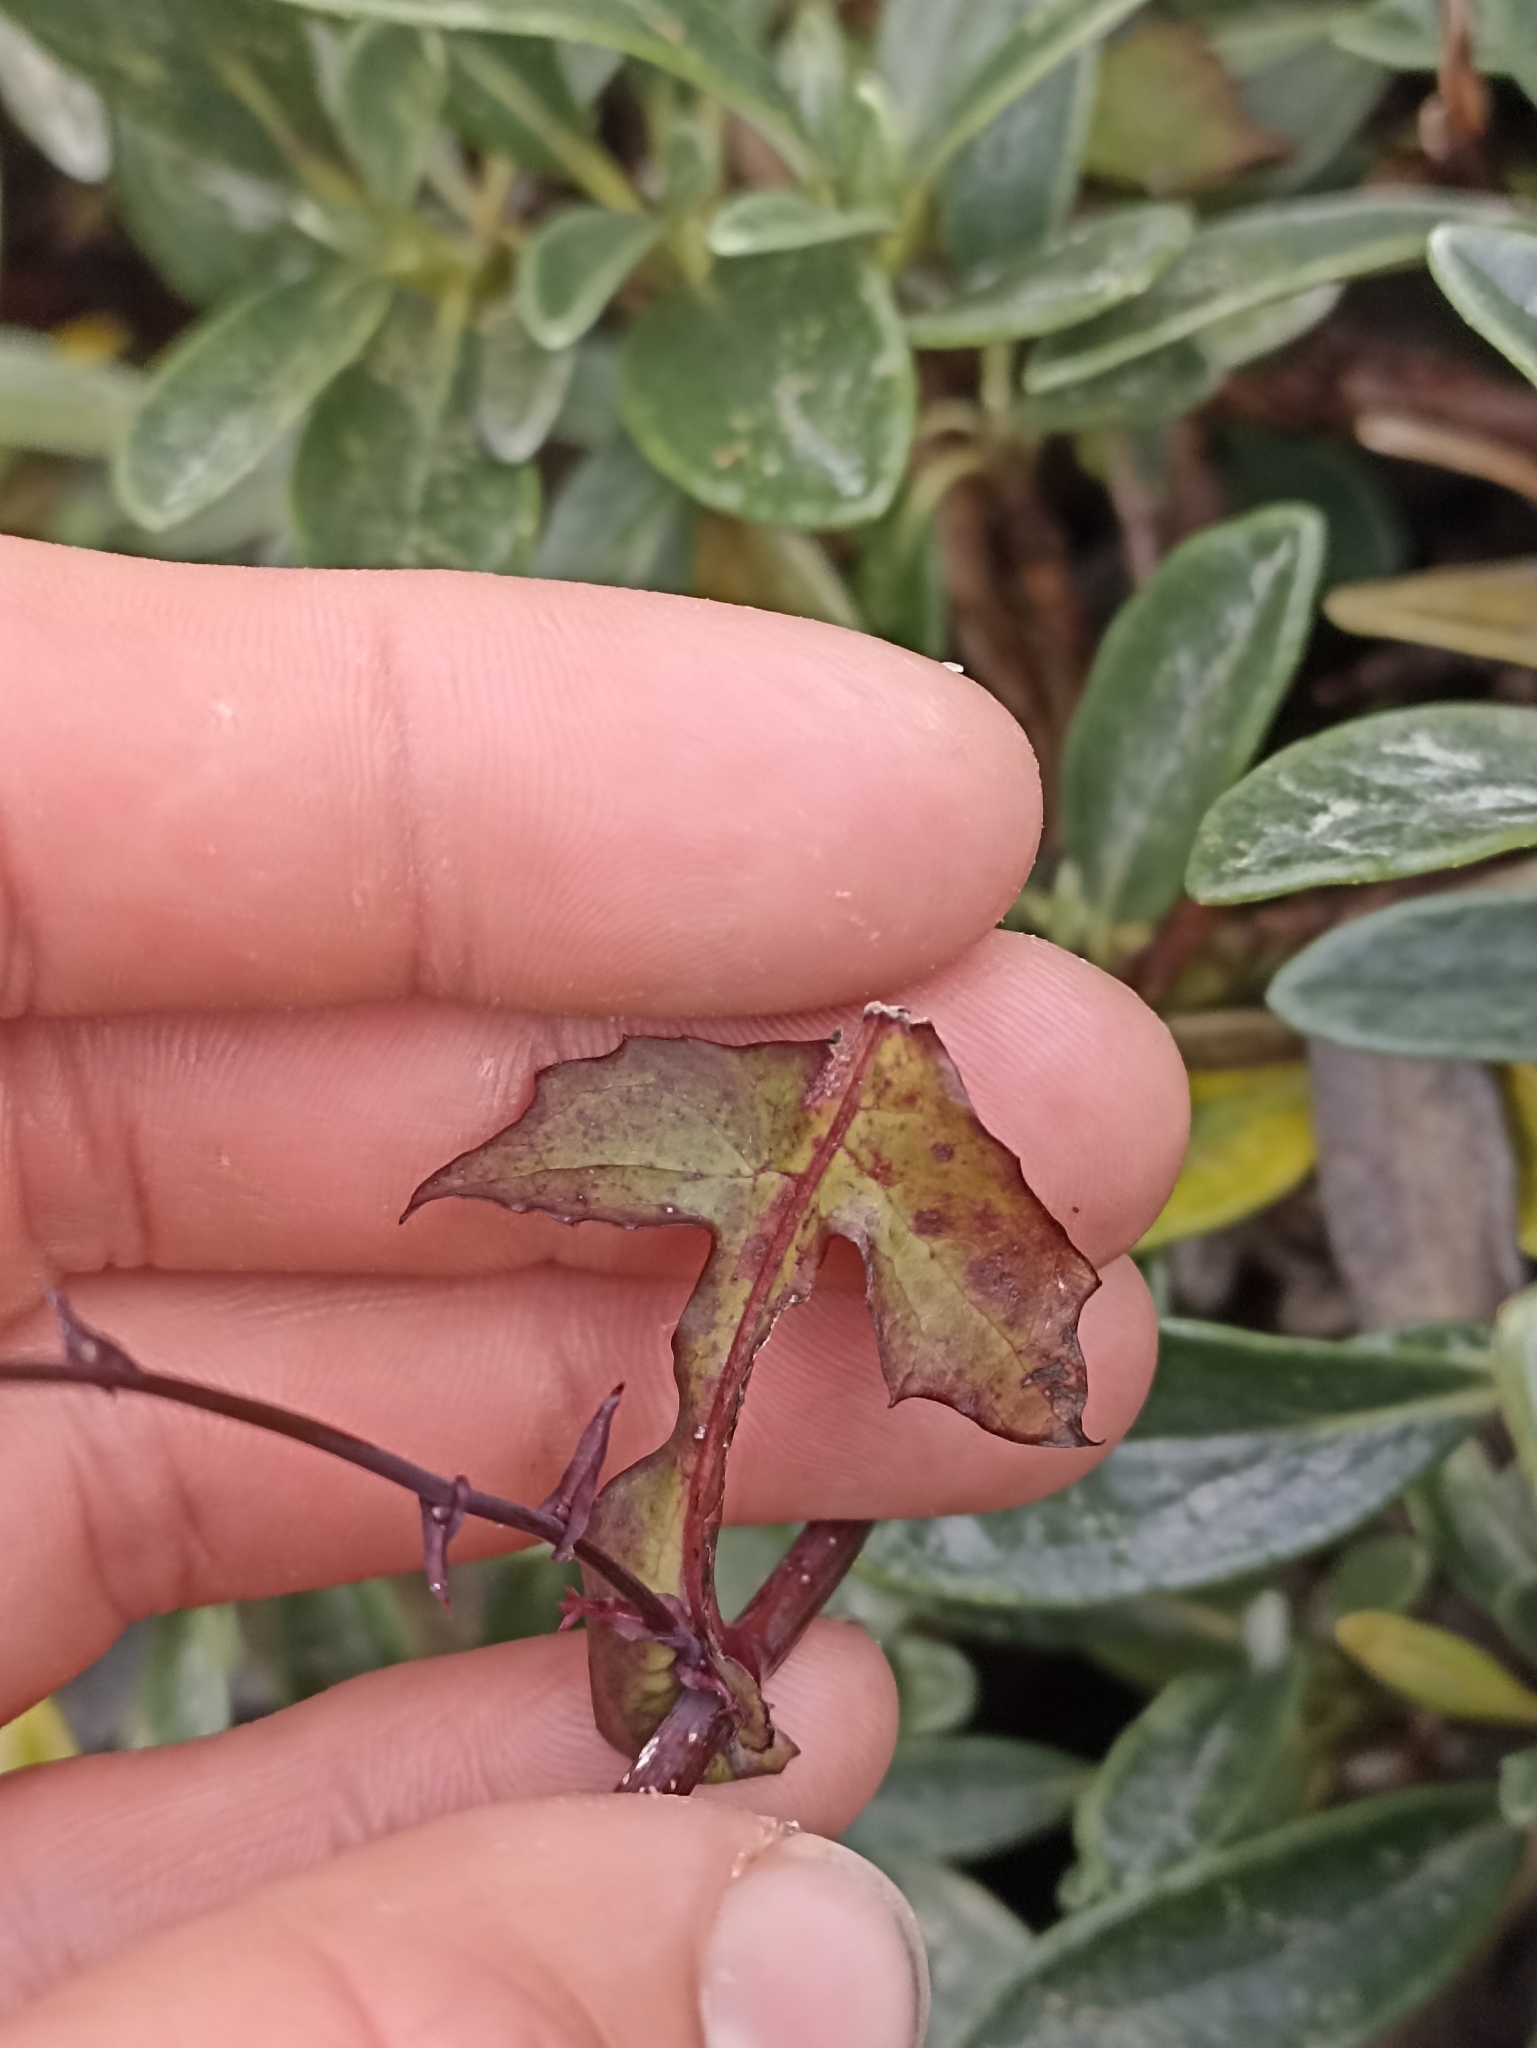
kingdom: Plantae
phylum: Tracheophyta
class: Magnoliopsida
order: Asterales
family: Asteraceae
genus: Mycelis
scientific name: Mycelis muralis
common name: Wall lettuce
